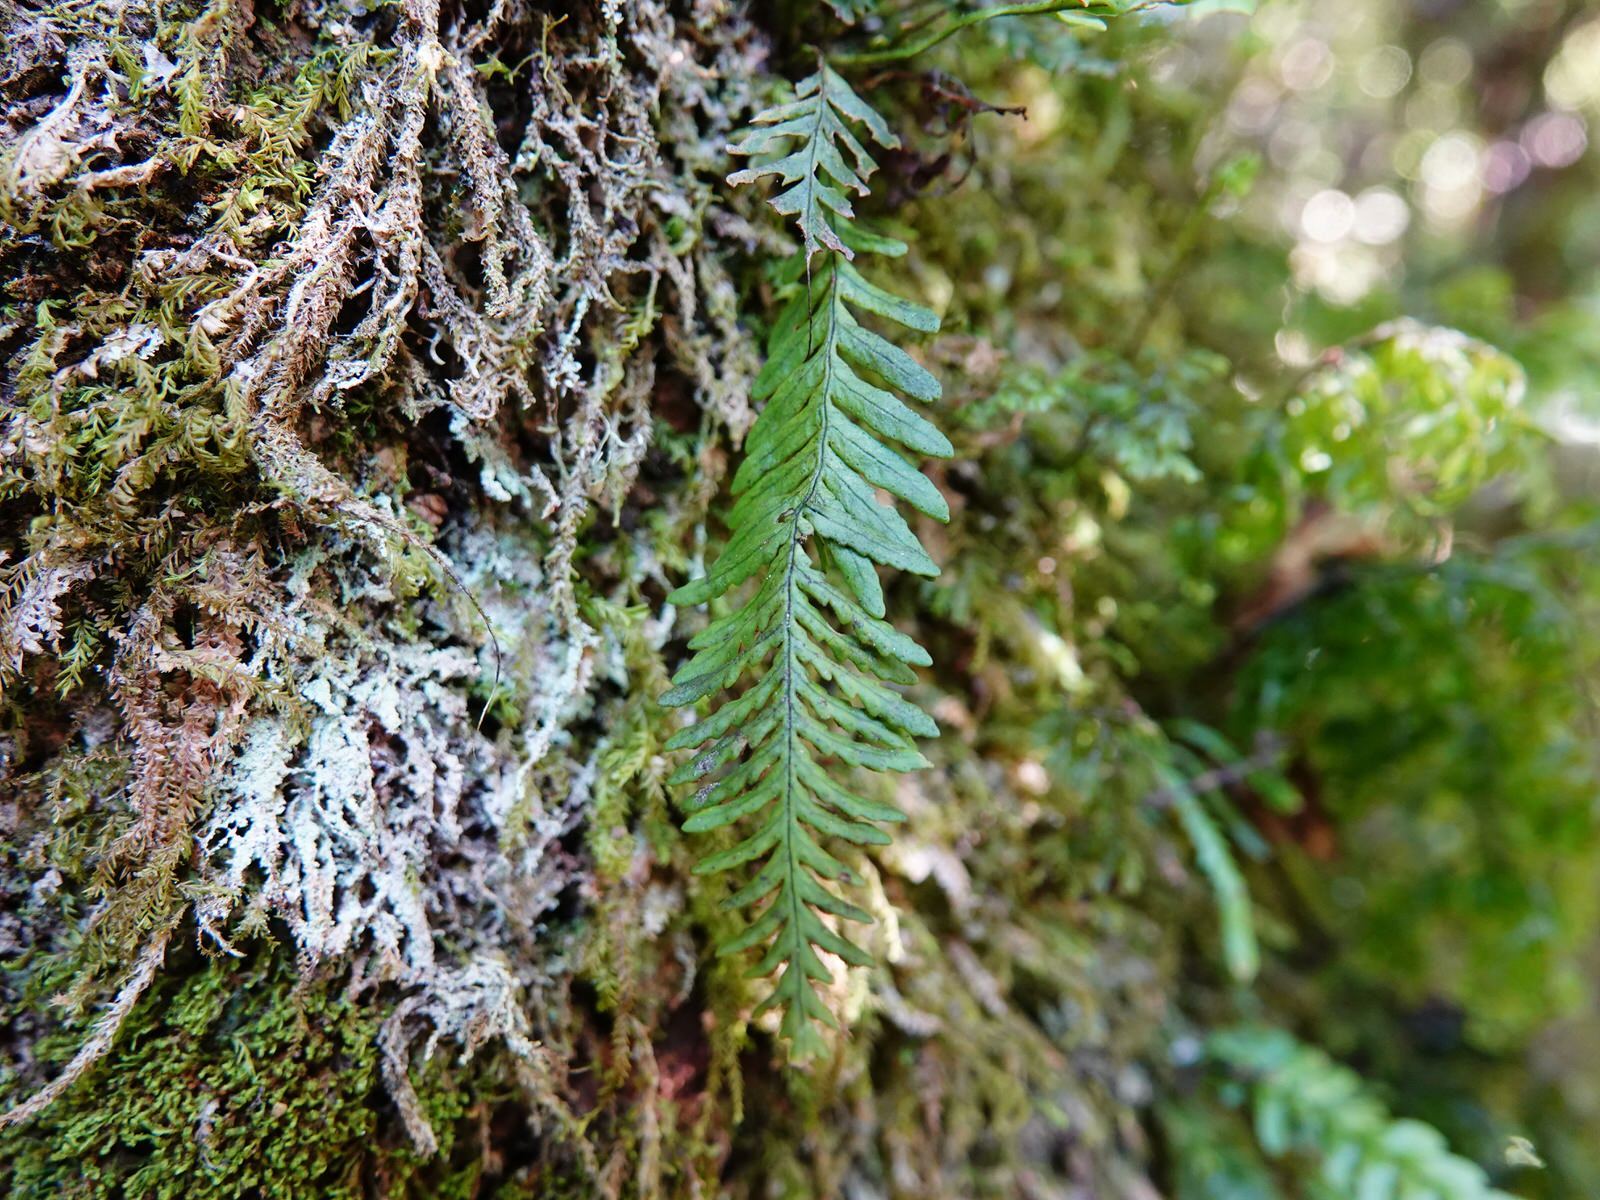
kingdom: Plantae
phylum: Tracheophyta
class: Polypodiopsida
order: Polypodiales
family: Polypodiaceae
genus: Notogrammitis
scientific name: Notogrammitis heterophylla
